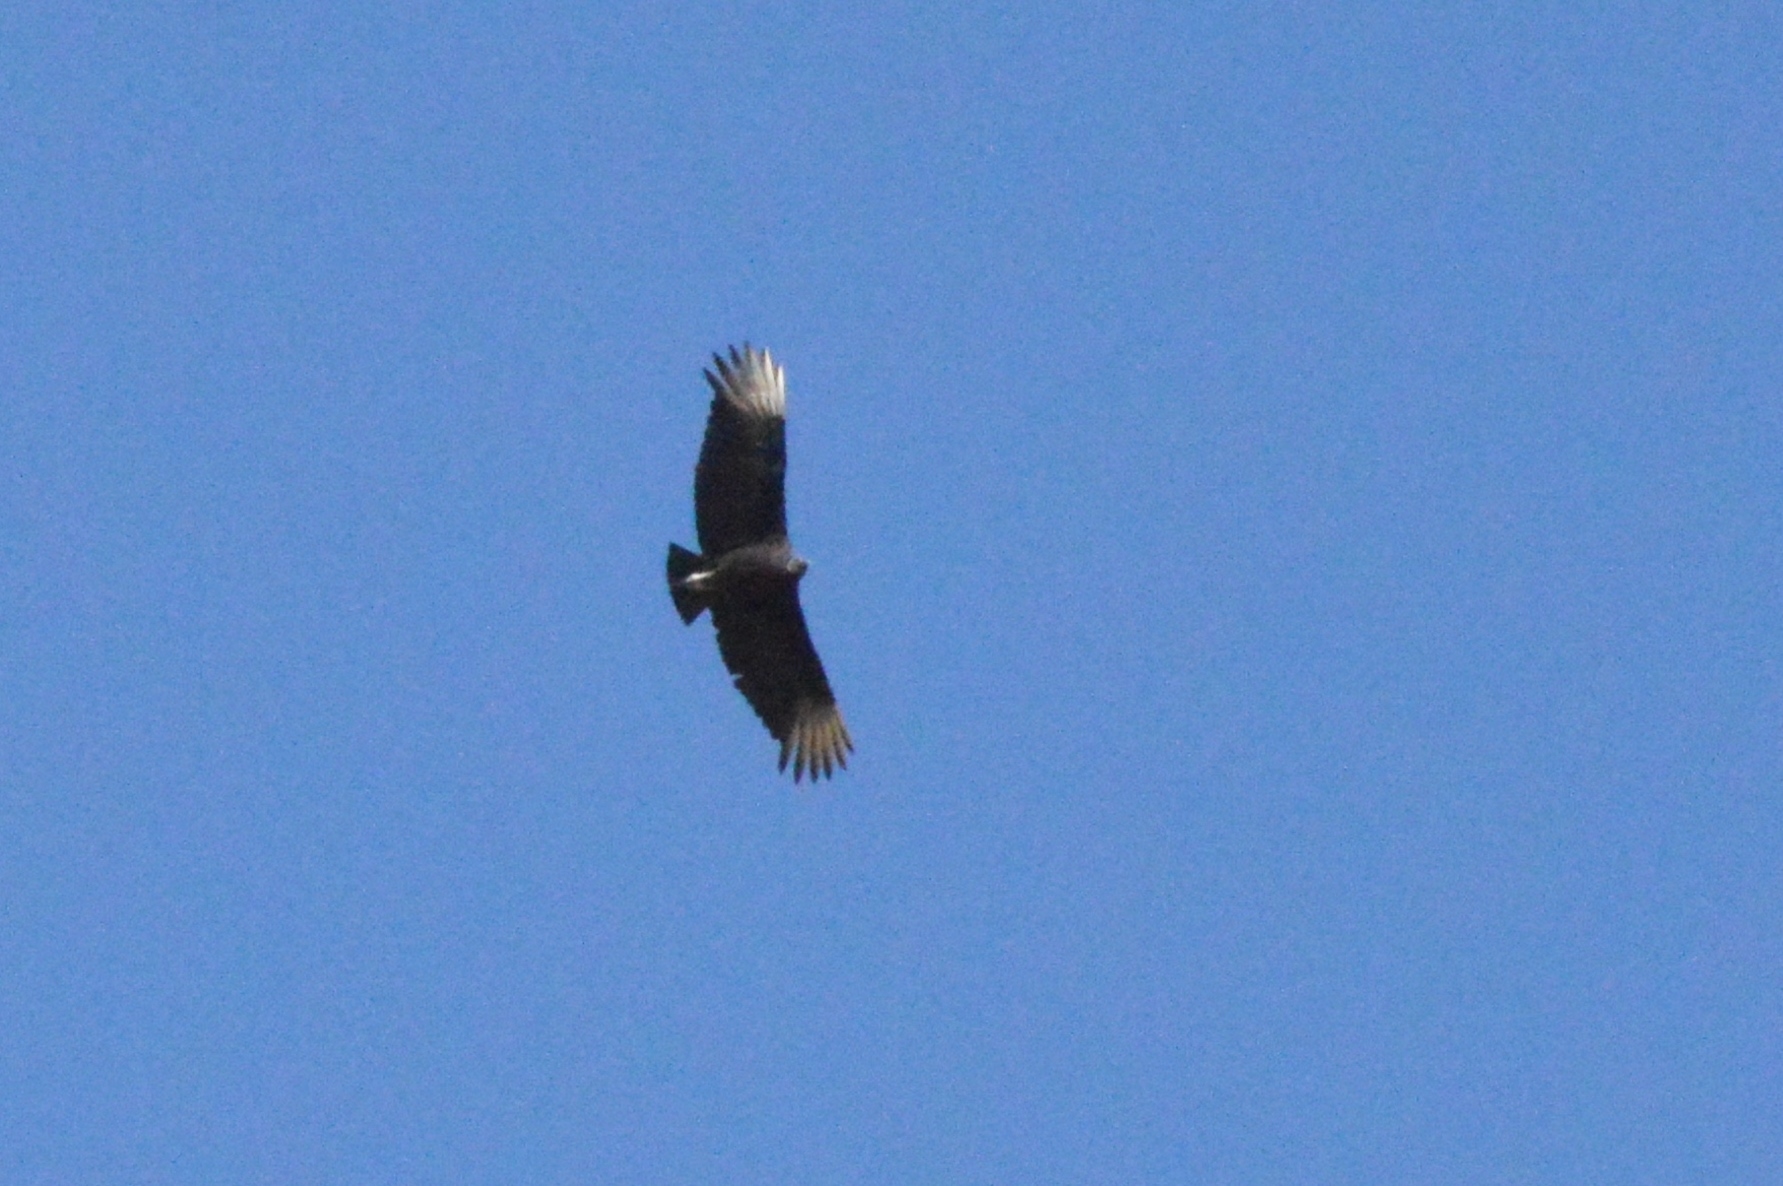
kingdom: Animalia
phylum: Chordata
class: Aves
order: Accipitriformes
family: Cathartidae
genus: Coragyps
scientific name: Coragyps atratus
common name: Black vulture
